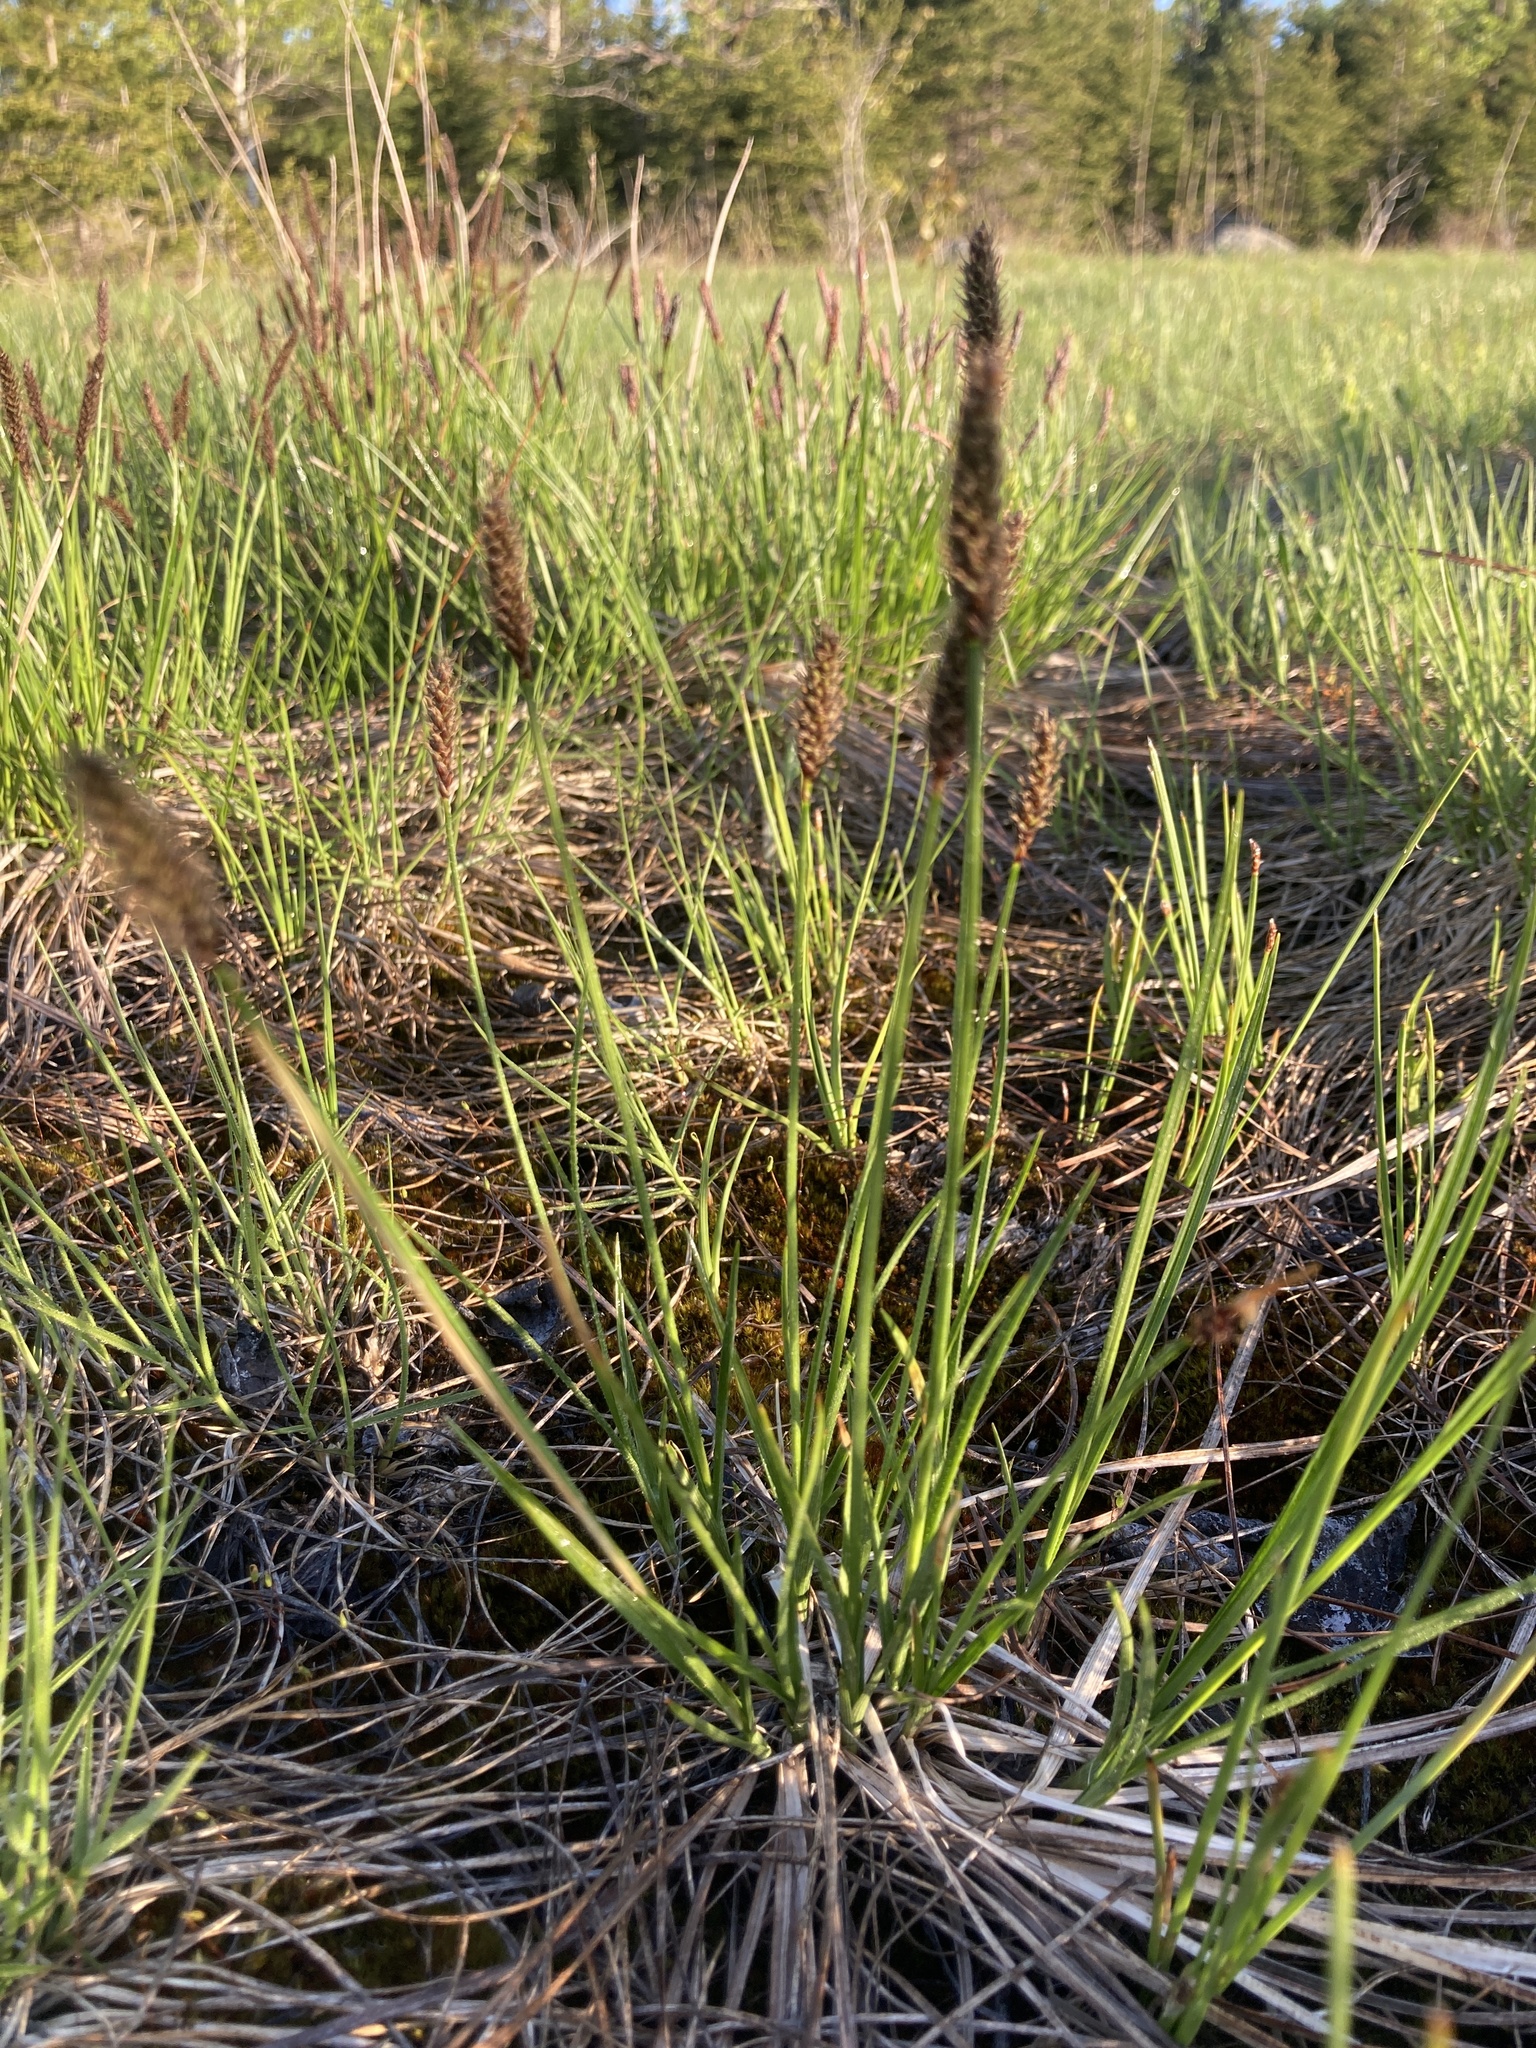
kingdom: Plantae
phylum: Tracheophyta
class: Liliopsida
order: Poales
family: Cyperaceae
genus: Carex
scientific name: Carex scirpoidea
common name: Canada single-spike sedge
